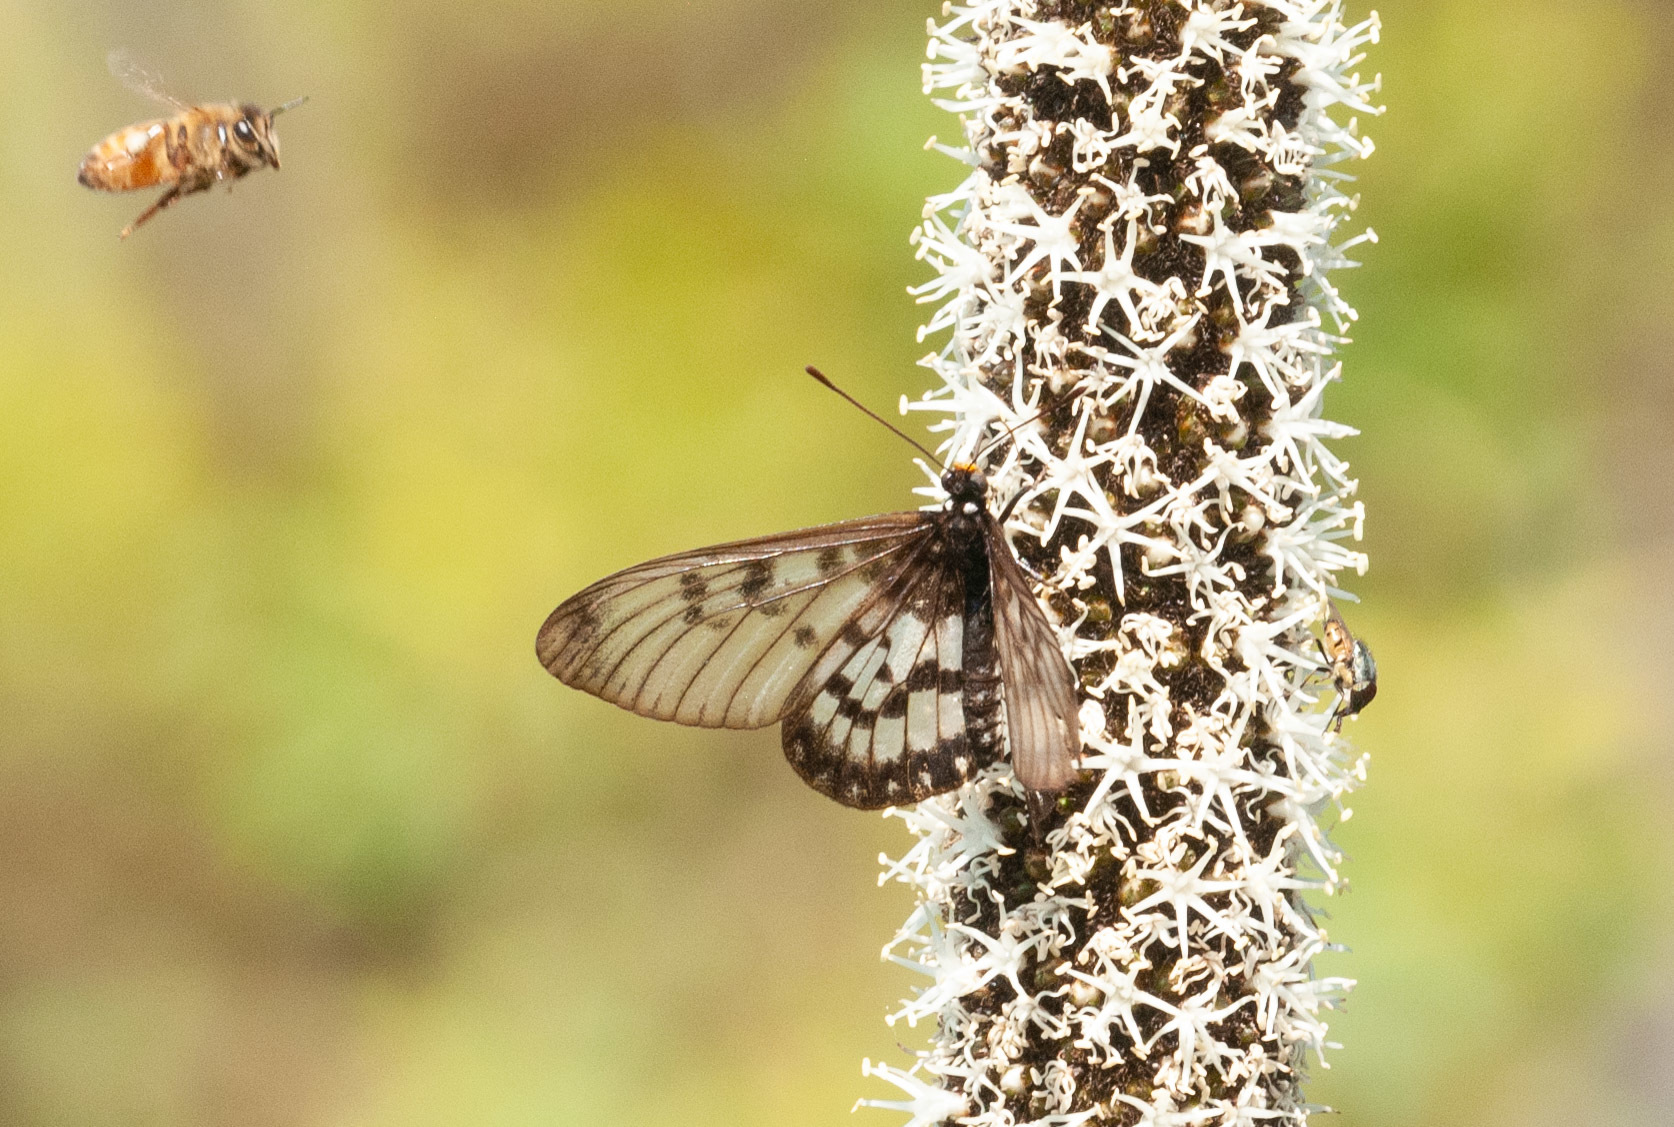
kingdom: Animalia
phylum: Arthropoda
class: Insecta
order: Lepidoptera
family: Nymphalidae
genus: Acraea
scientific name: Acraea andromacha
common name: Glasswing
